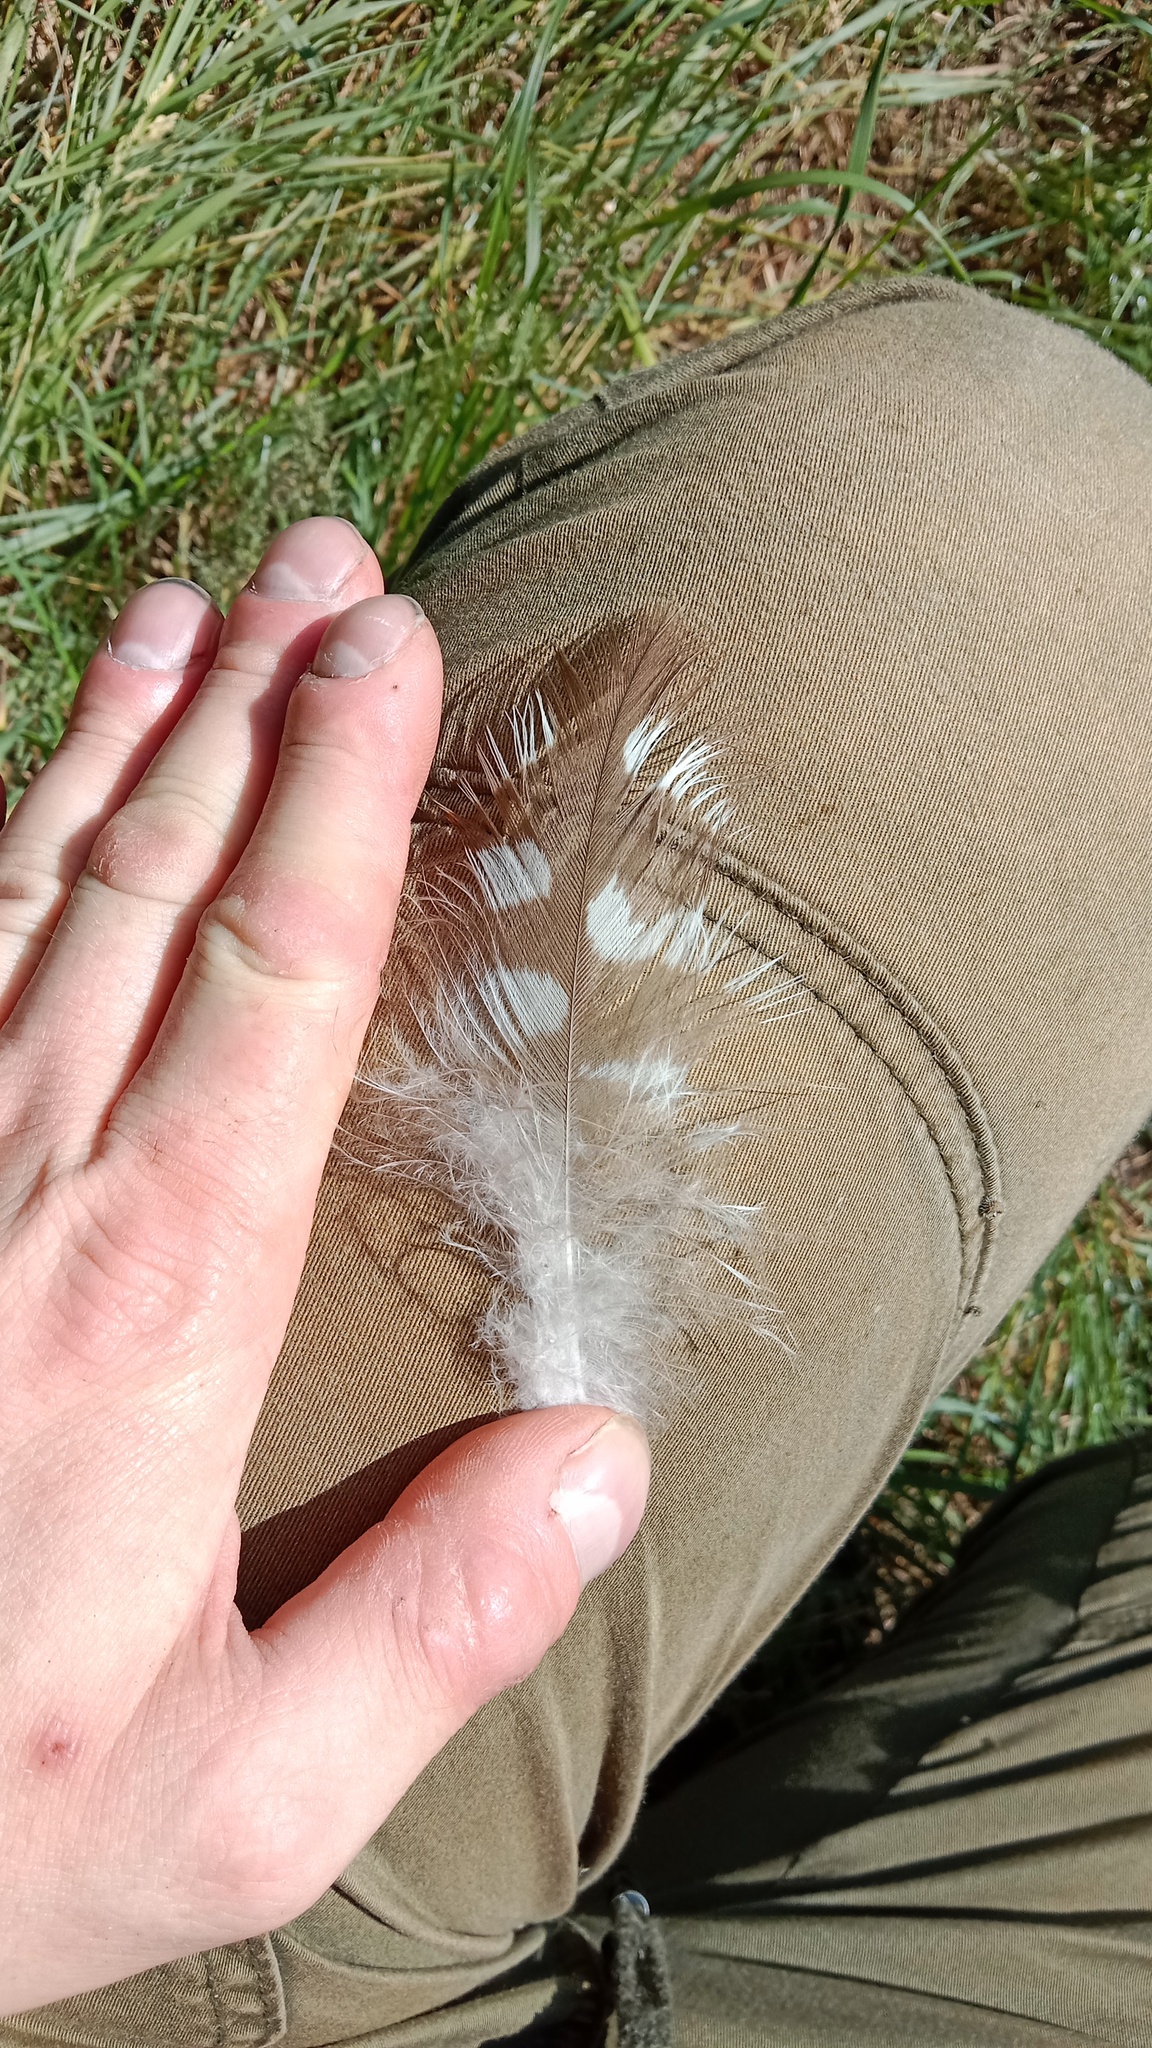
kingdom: Animalia
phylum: Chordata
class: Aves
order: Accipitriformes
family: Accipitridae
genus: Buteo
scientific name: Buteo buteo
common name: Common buzzard
